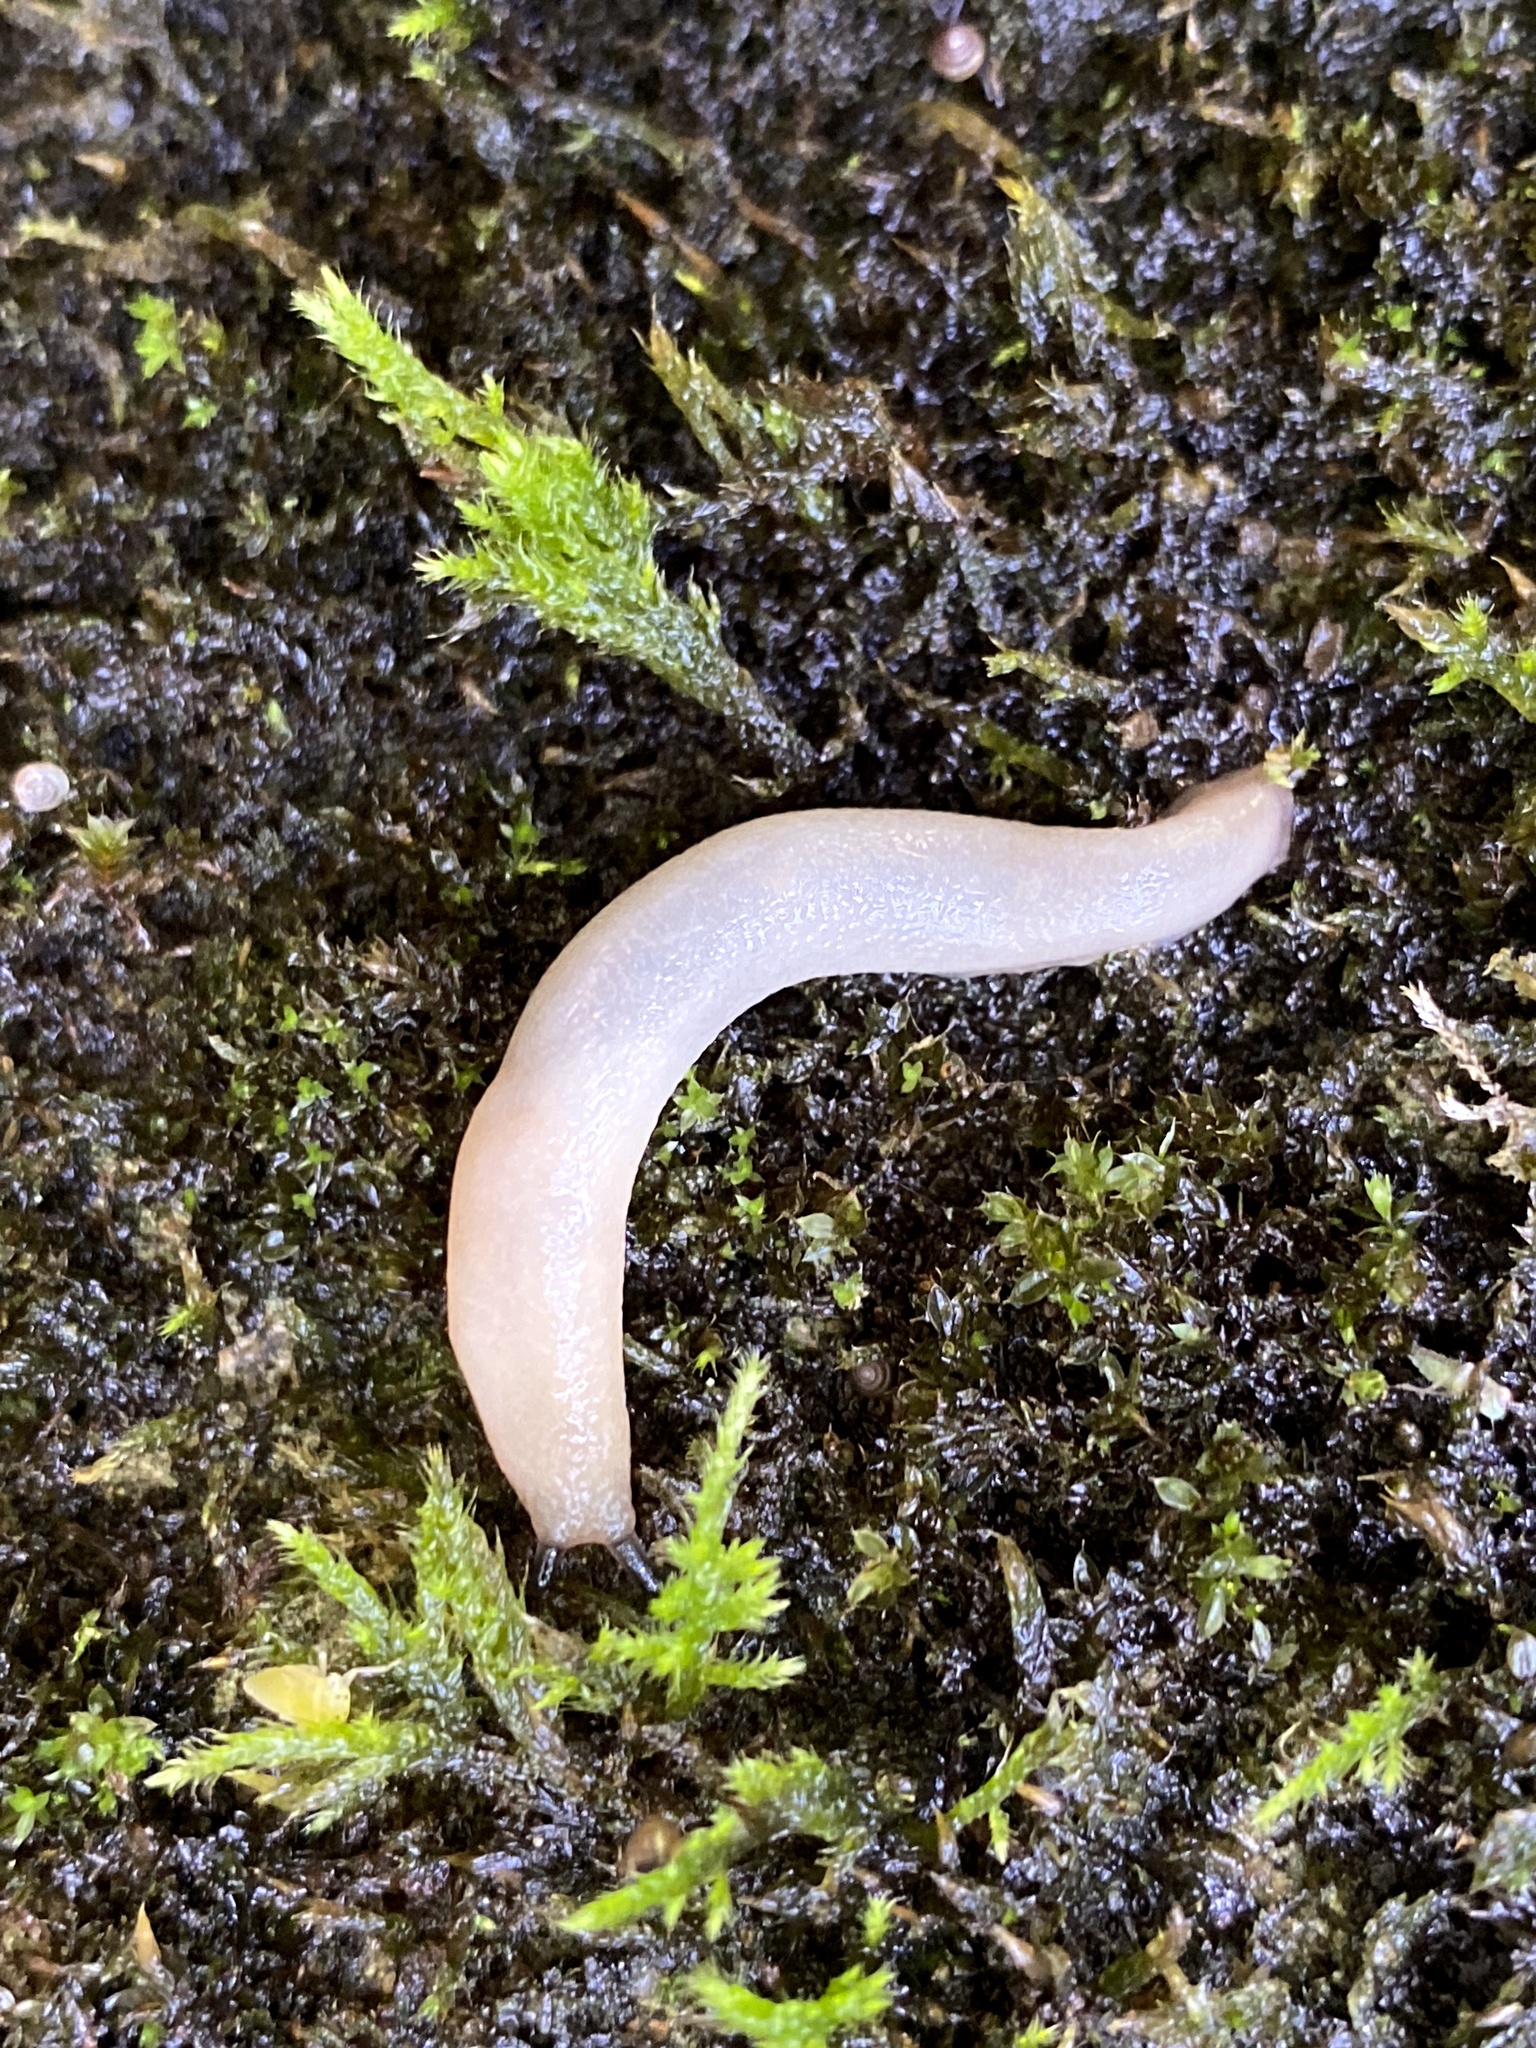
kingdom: Animalia
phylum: Mollusca
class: Gastropoda
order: Stylommatophora
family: Philomycidae
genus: Meghimatium
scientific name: Meghimatium bilineatum
